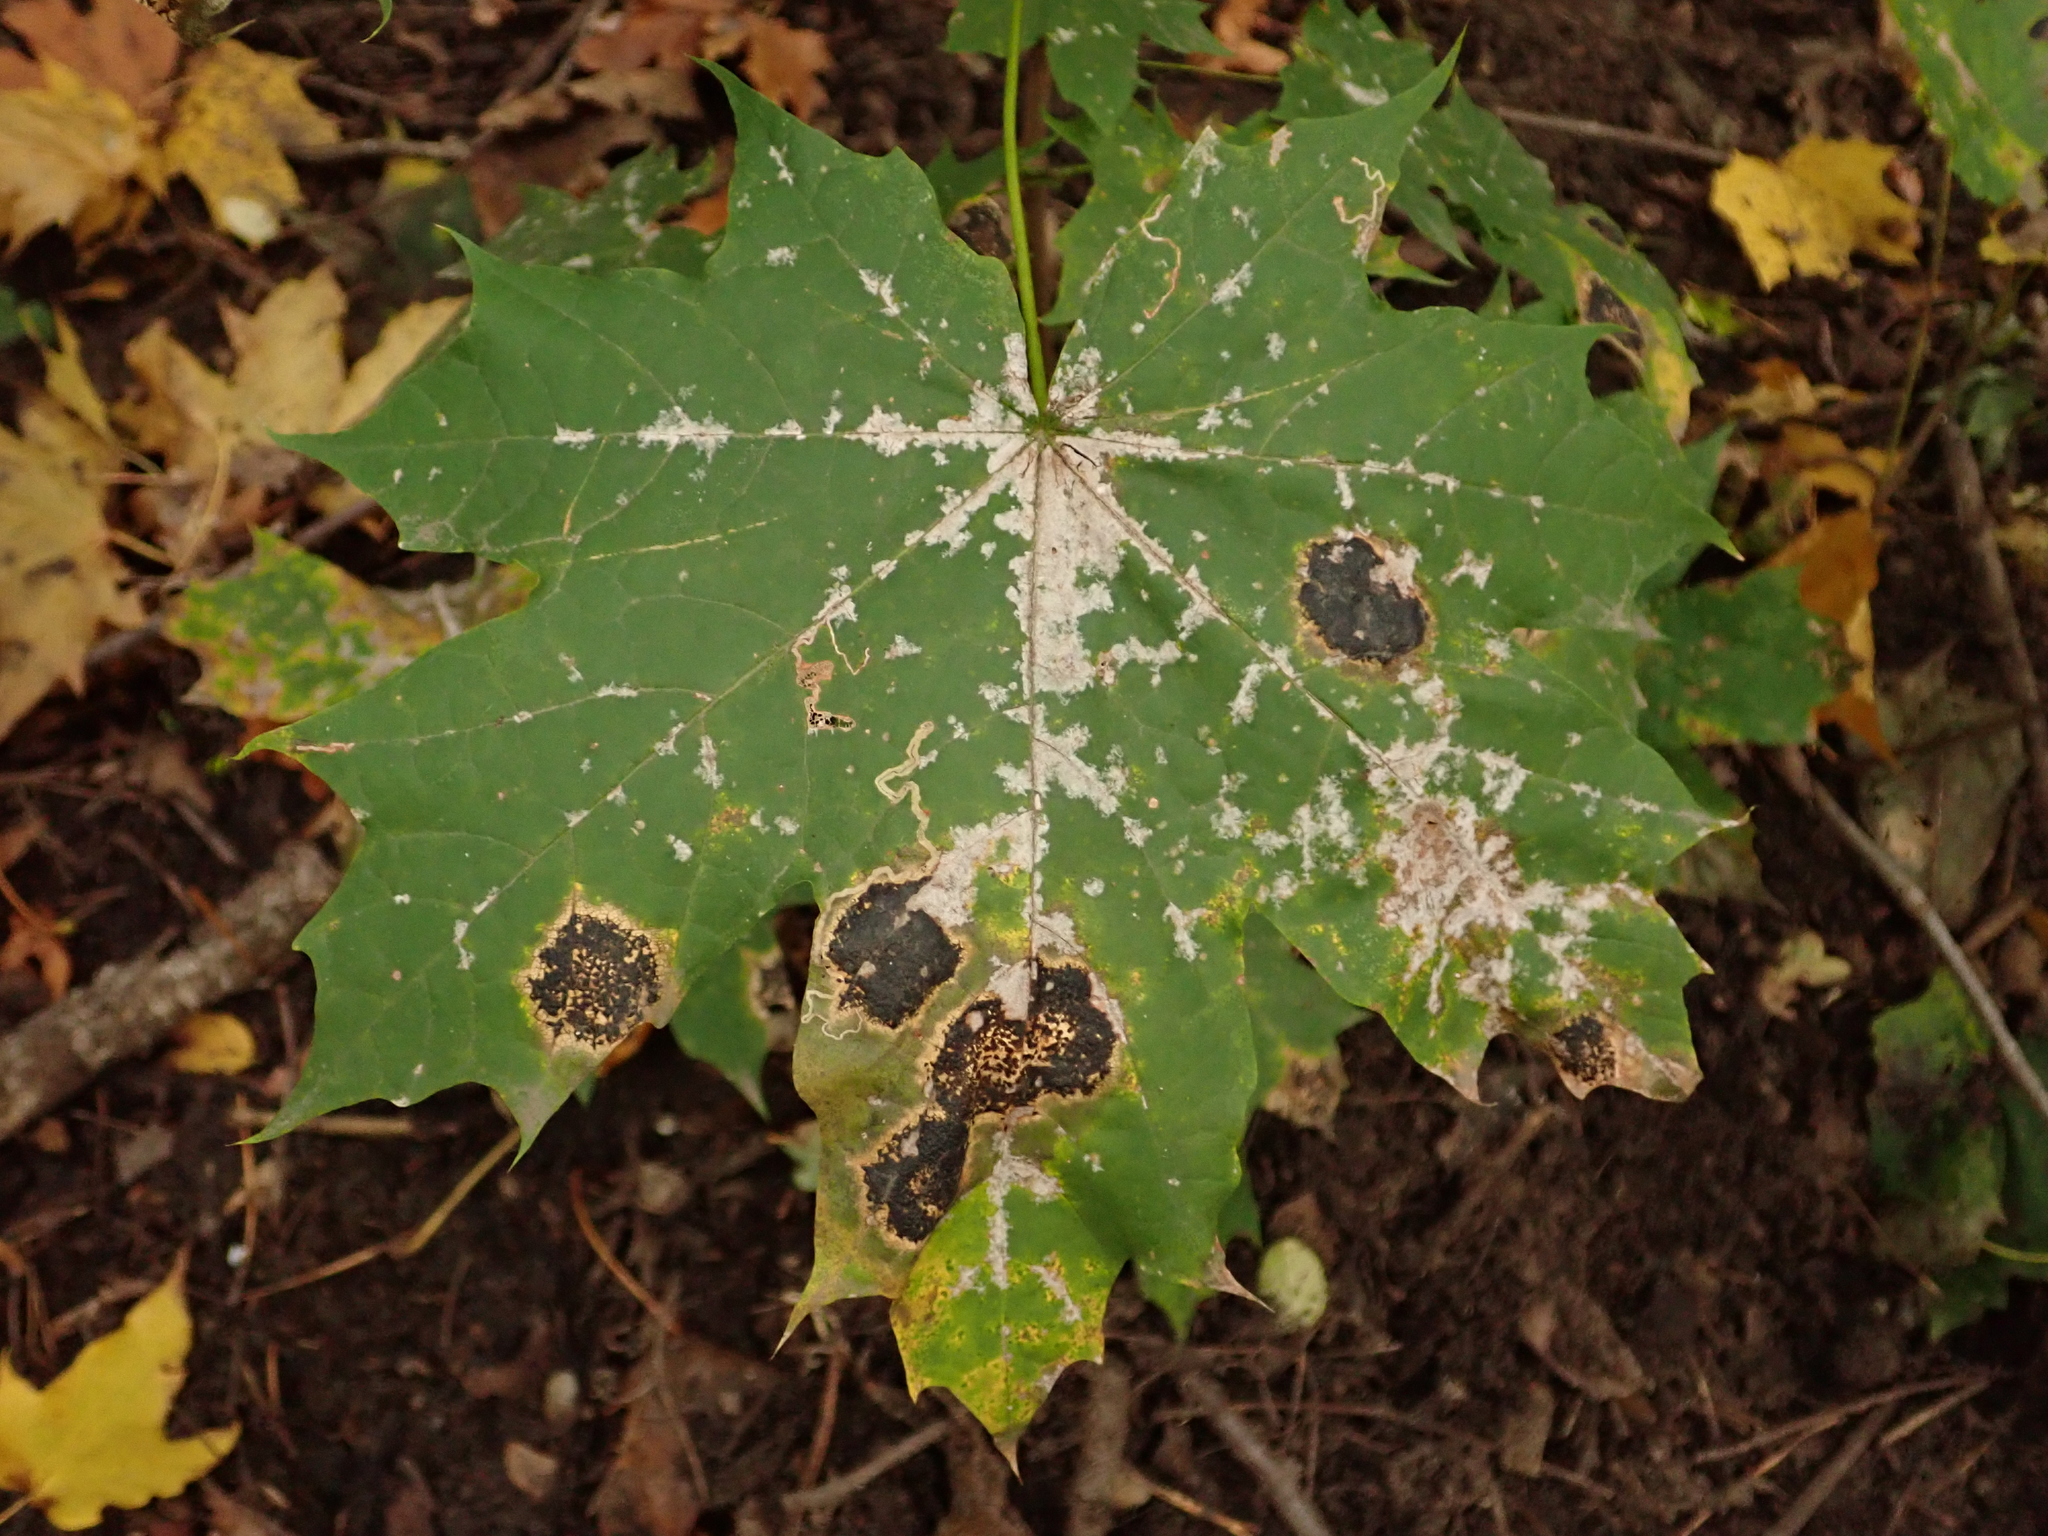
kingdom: Plantae
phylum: Tracheophyta
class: Magnoliopsida
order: Sapindales
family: Sapindaceae
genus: Acer
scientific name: Acer platanoides
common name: Norway maple
